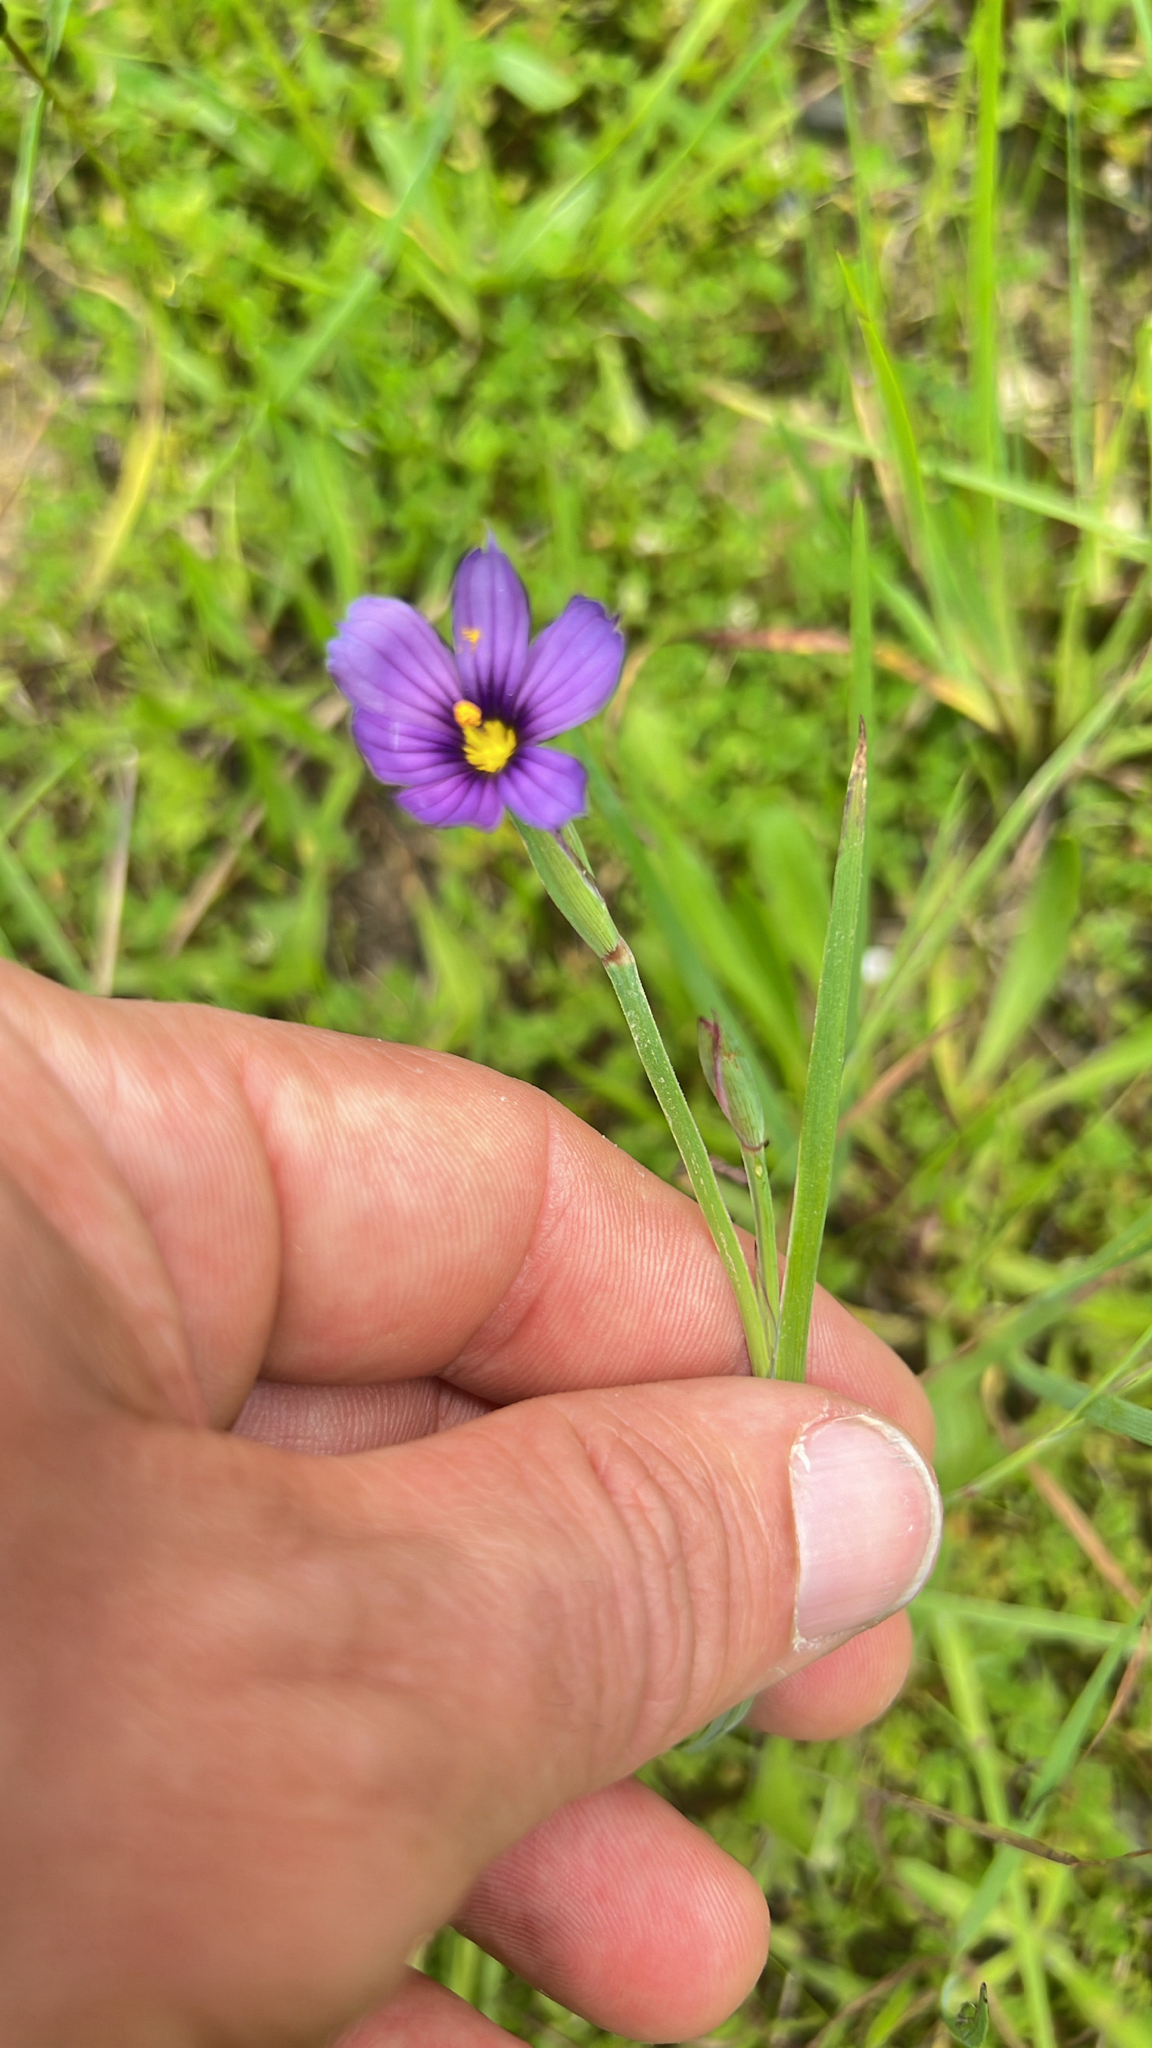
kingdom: Plantae
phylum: Tracheophyta
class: Liliopsida
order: Asparagales
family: Iridaceae
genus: Sisyrinchium
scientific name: Sisyrinchium bellum
